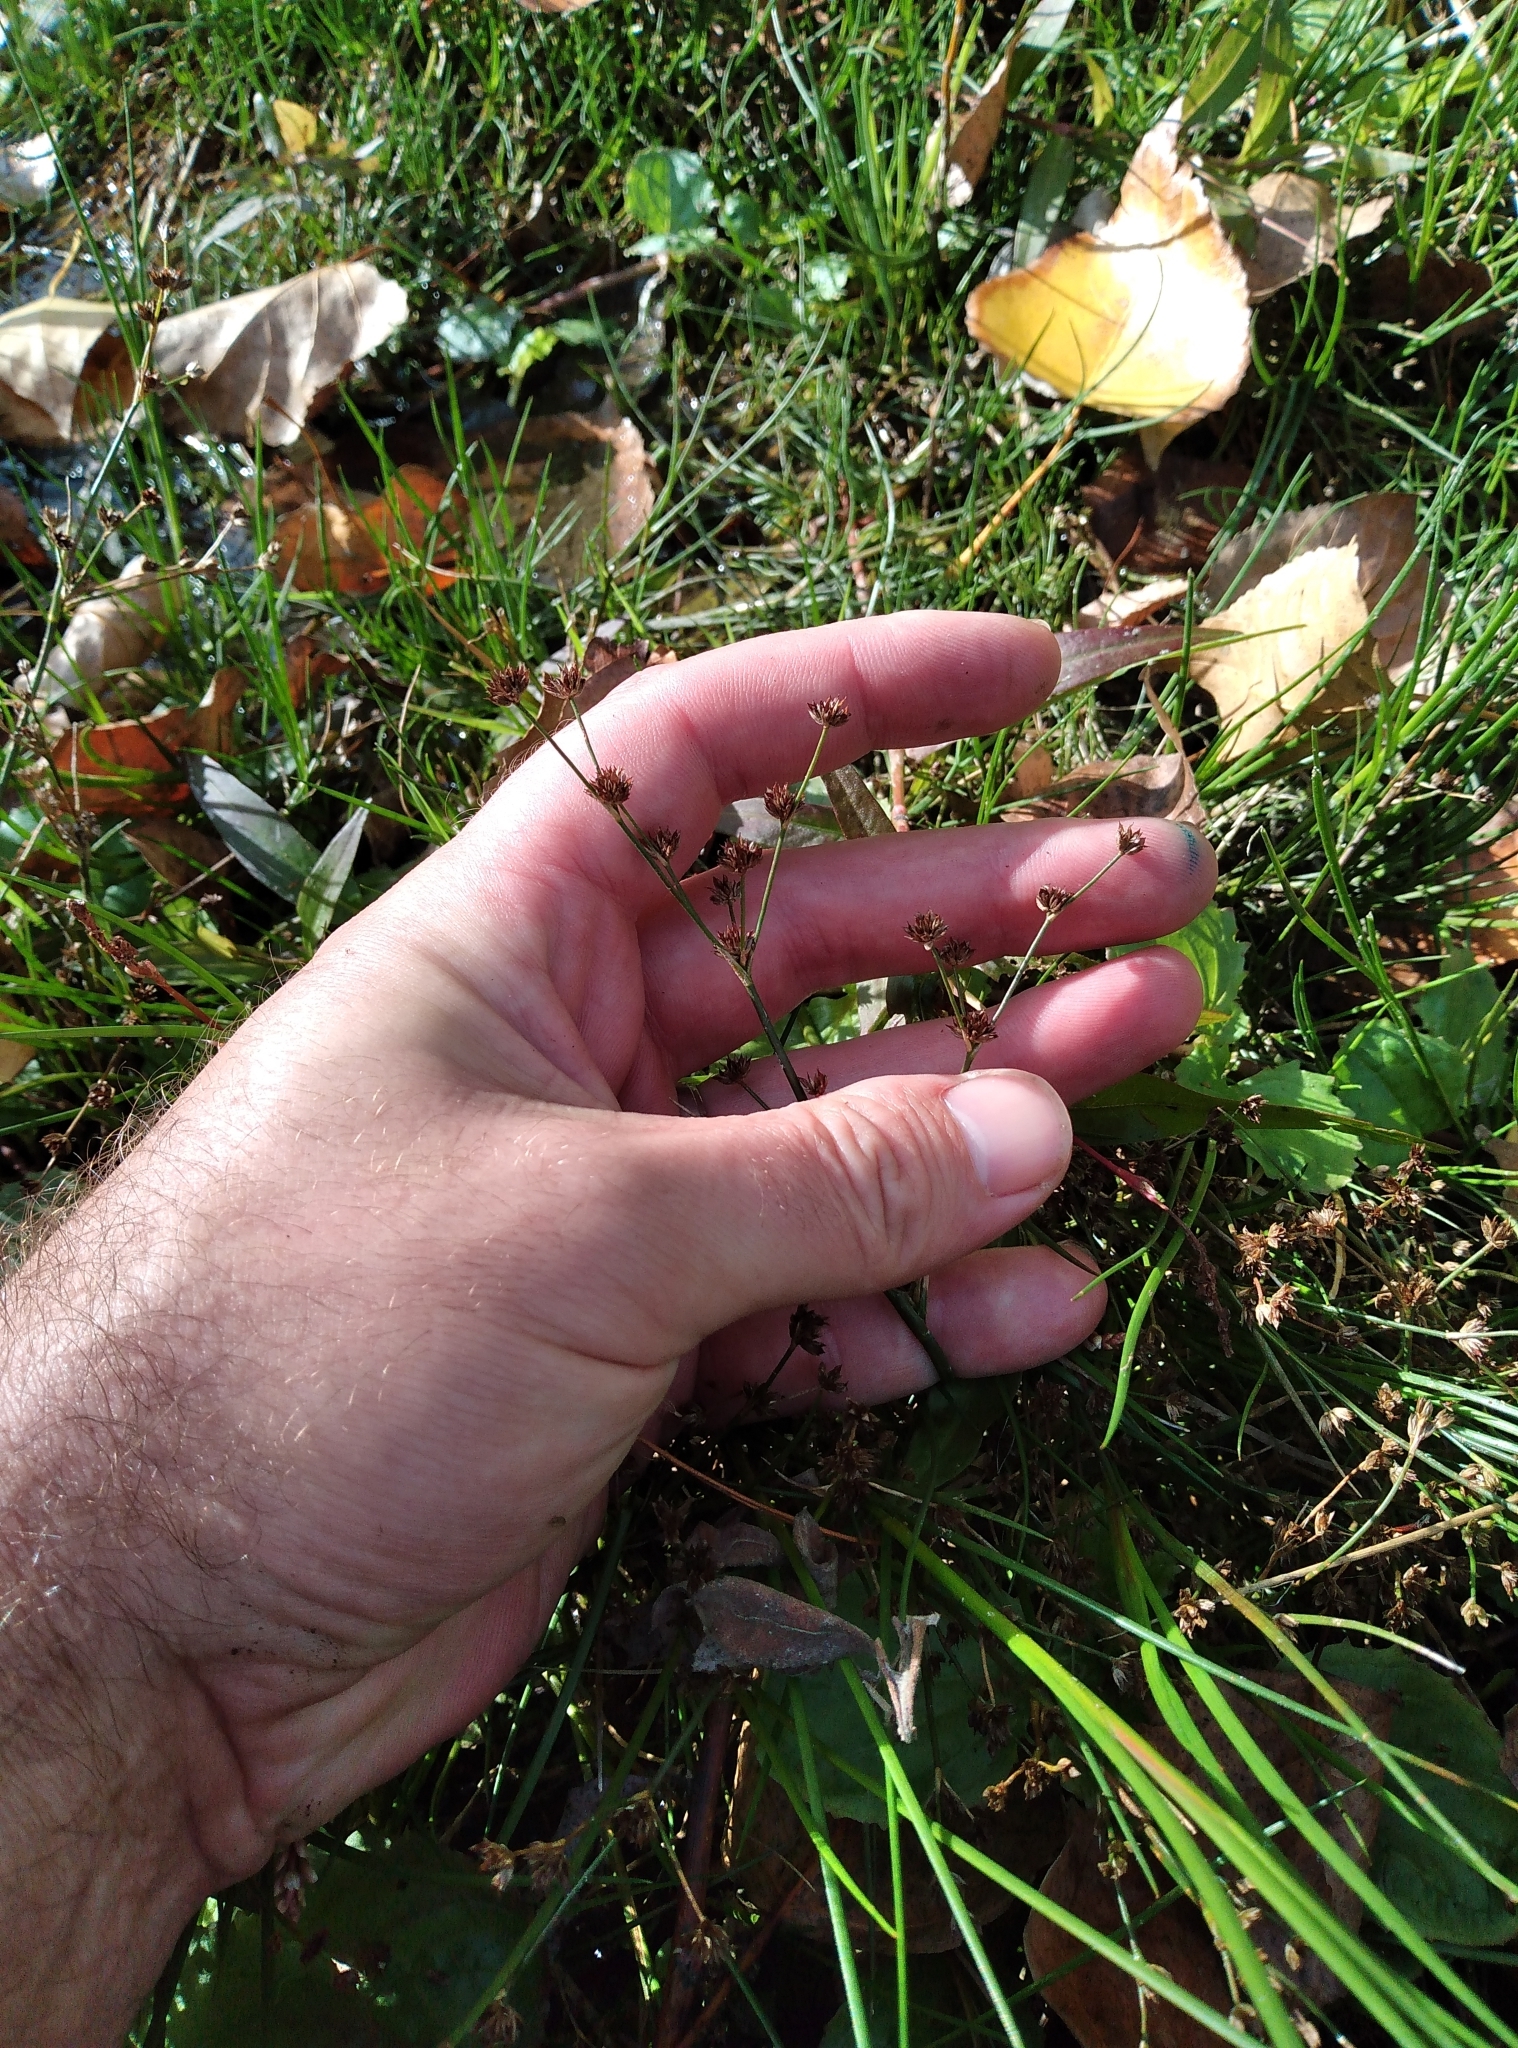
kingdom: Plantae
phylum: Tracheophyta
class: Liliopsida
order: Poales
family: Juncaceae
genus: Juncus
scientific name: Juncus articulatus
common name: Jointed rush
